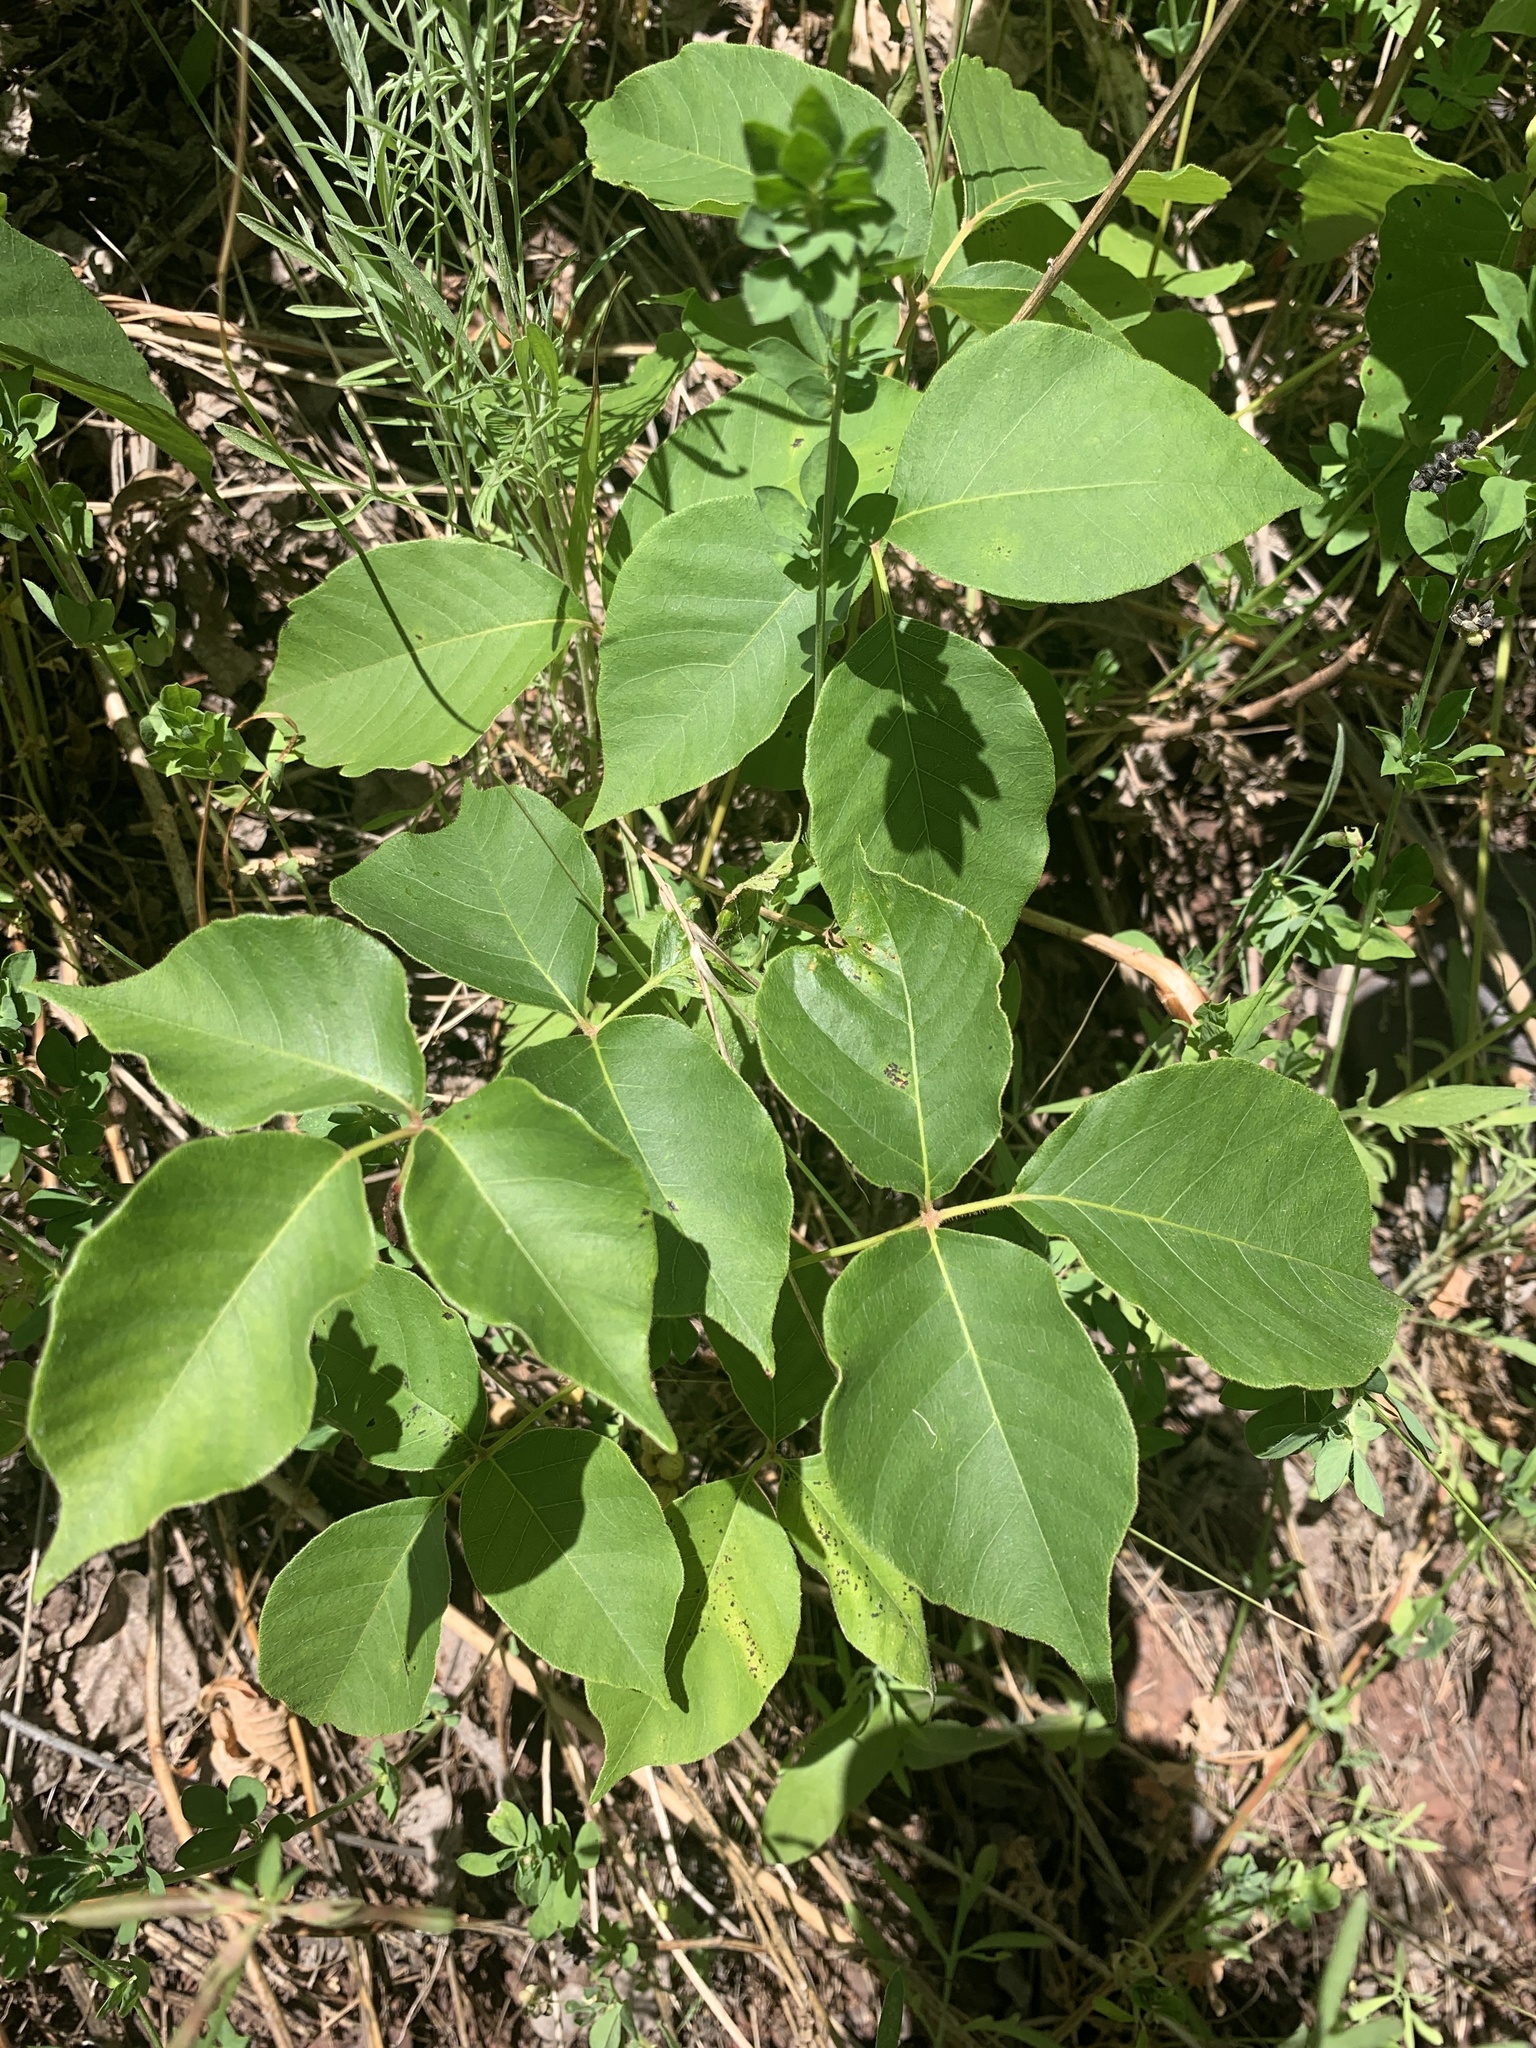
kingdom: Plantae
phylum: Tracheophyta
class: Magnoliopsida
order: Sapindales
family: Anacardiaceae
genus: Toxicodendron
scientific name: Toxicodendron rydbergii
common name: Rydberg's poison-ivy
